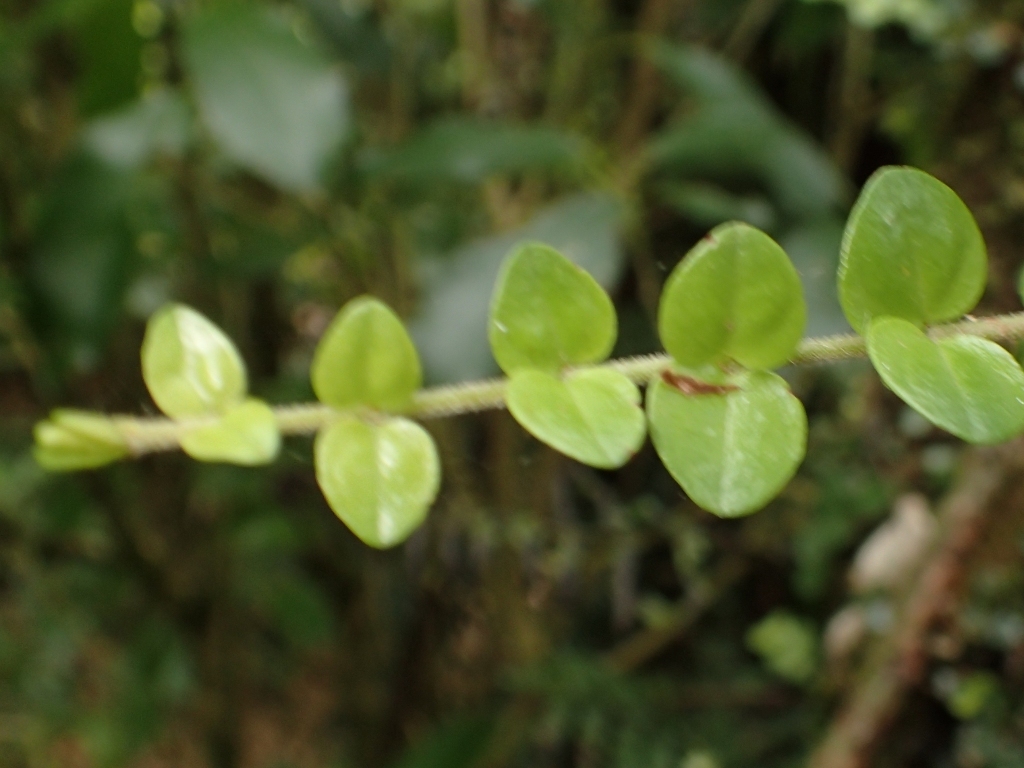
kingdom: Plantae
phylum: Tracheophyta
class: Magnoliopsida
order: Myrtales
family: Myrtaceae
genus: Metrosideros
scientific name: Metrosideros perforata
